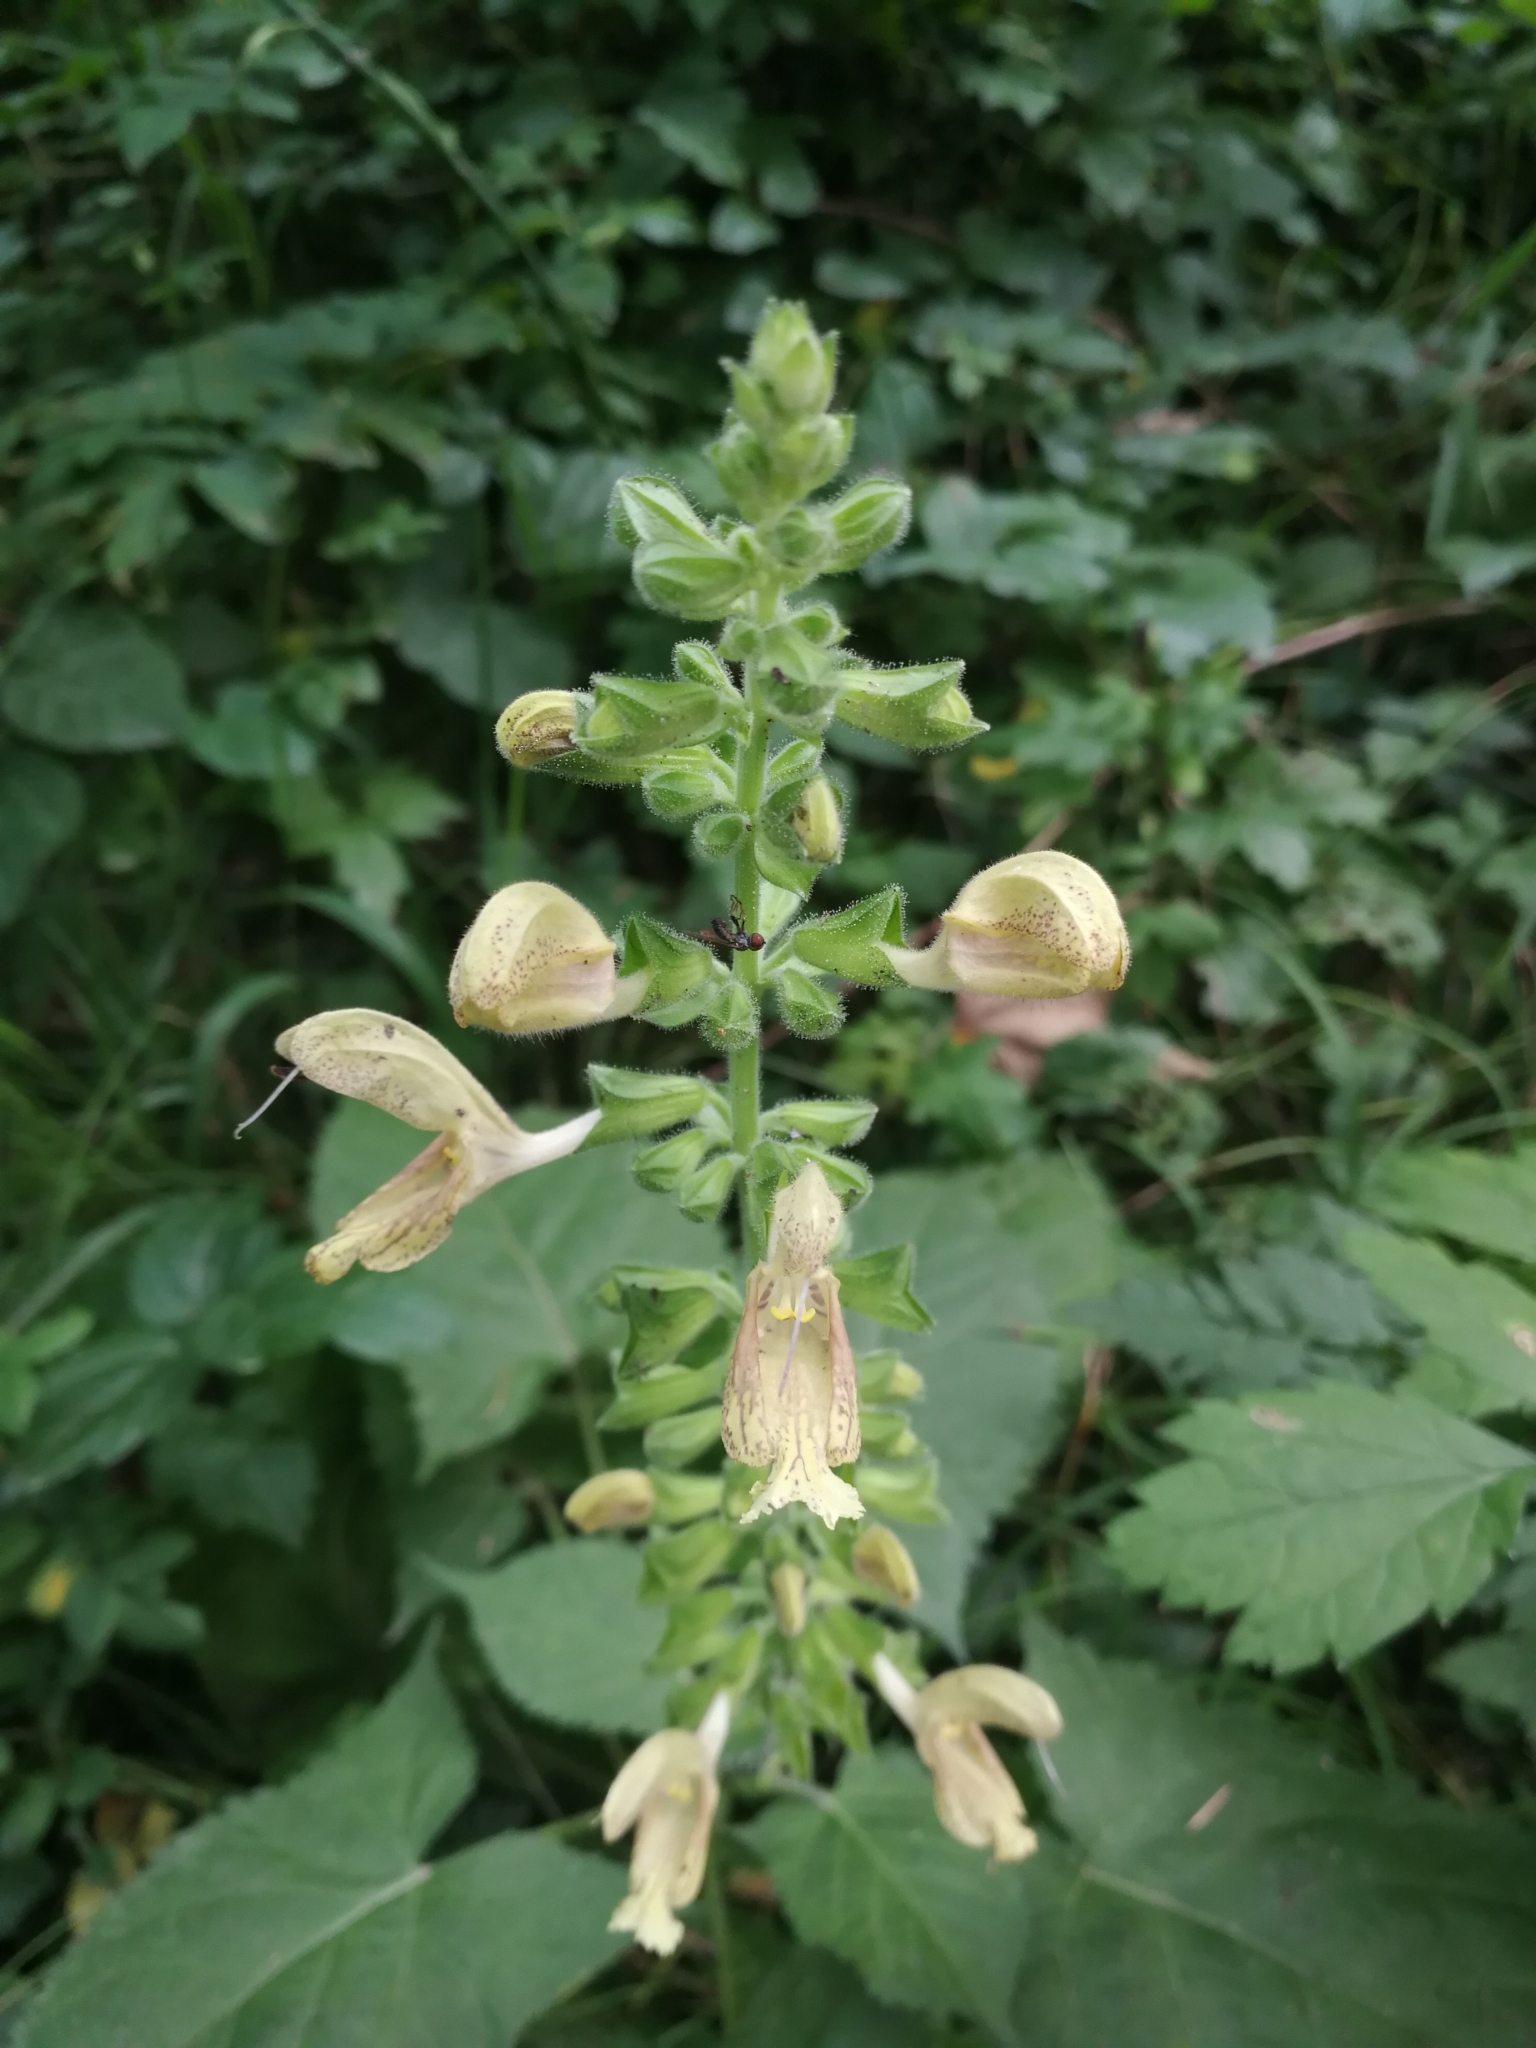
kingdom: Plantae
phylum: Tracheophyta
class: Magnoliopsida
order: Lamiales
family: Lamiaceae
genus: Salvia
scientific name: Salvia glutinosa
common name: Sticky clary
